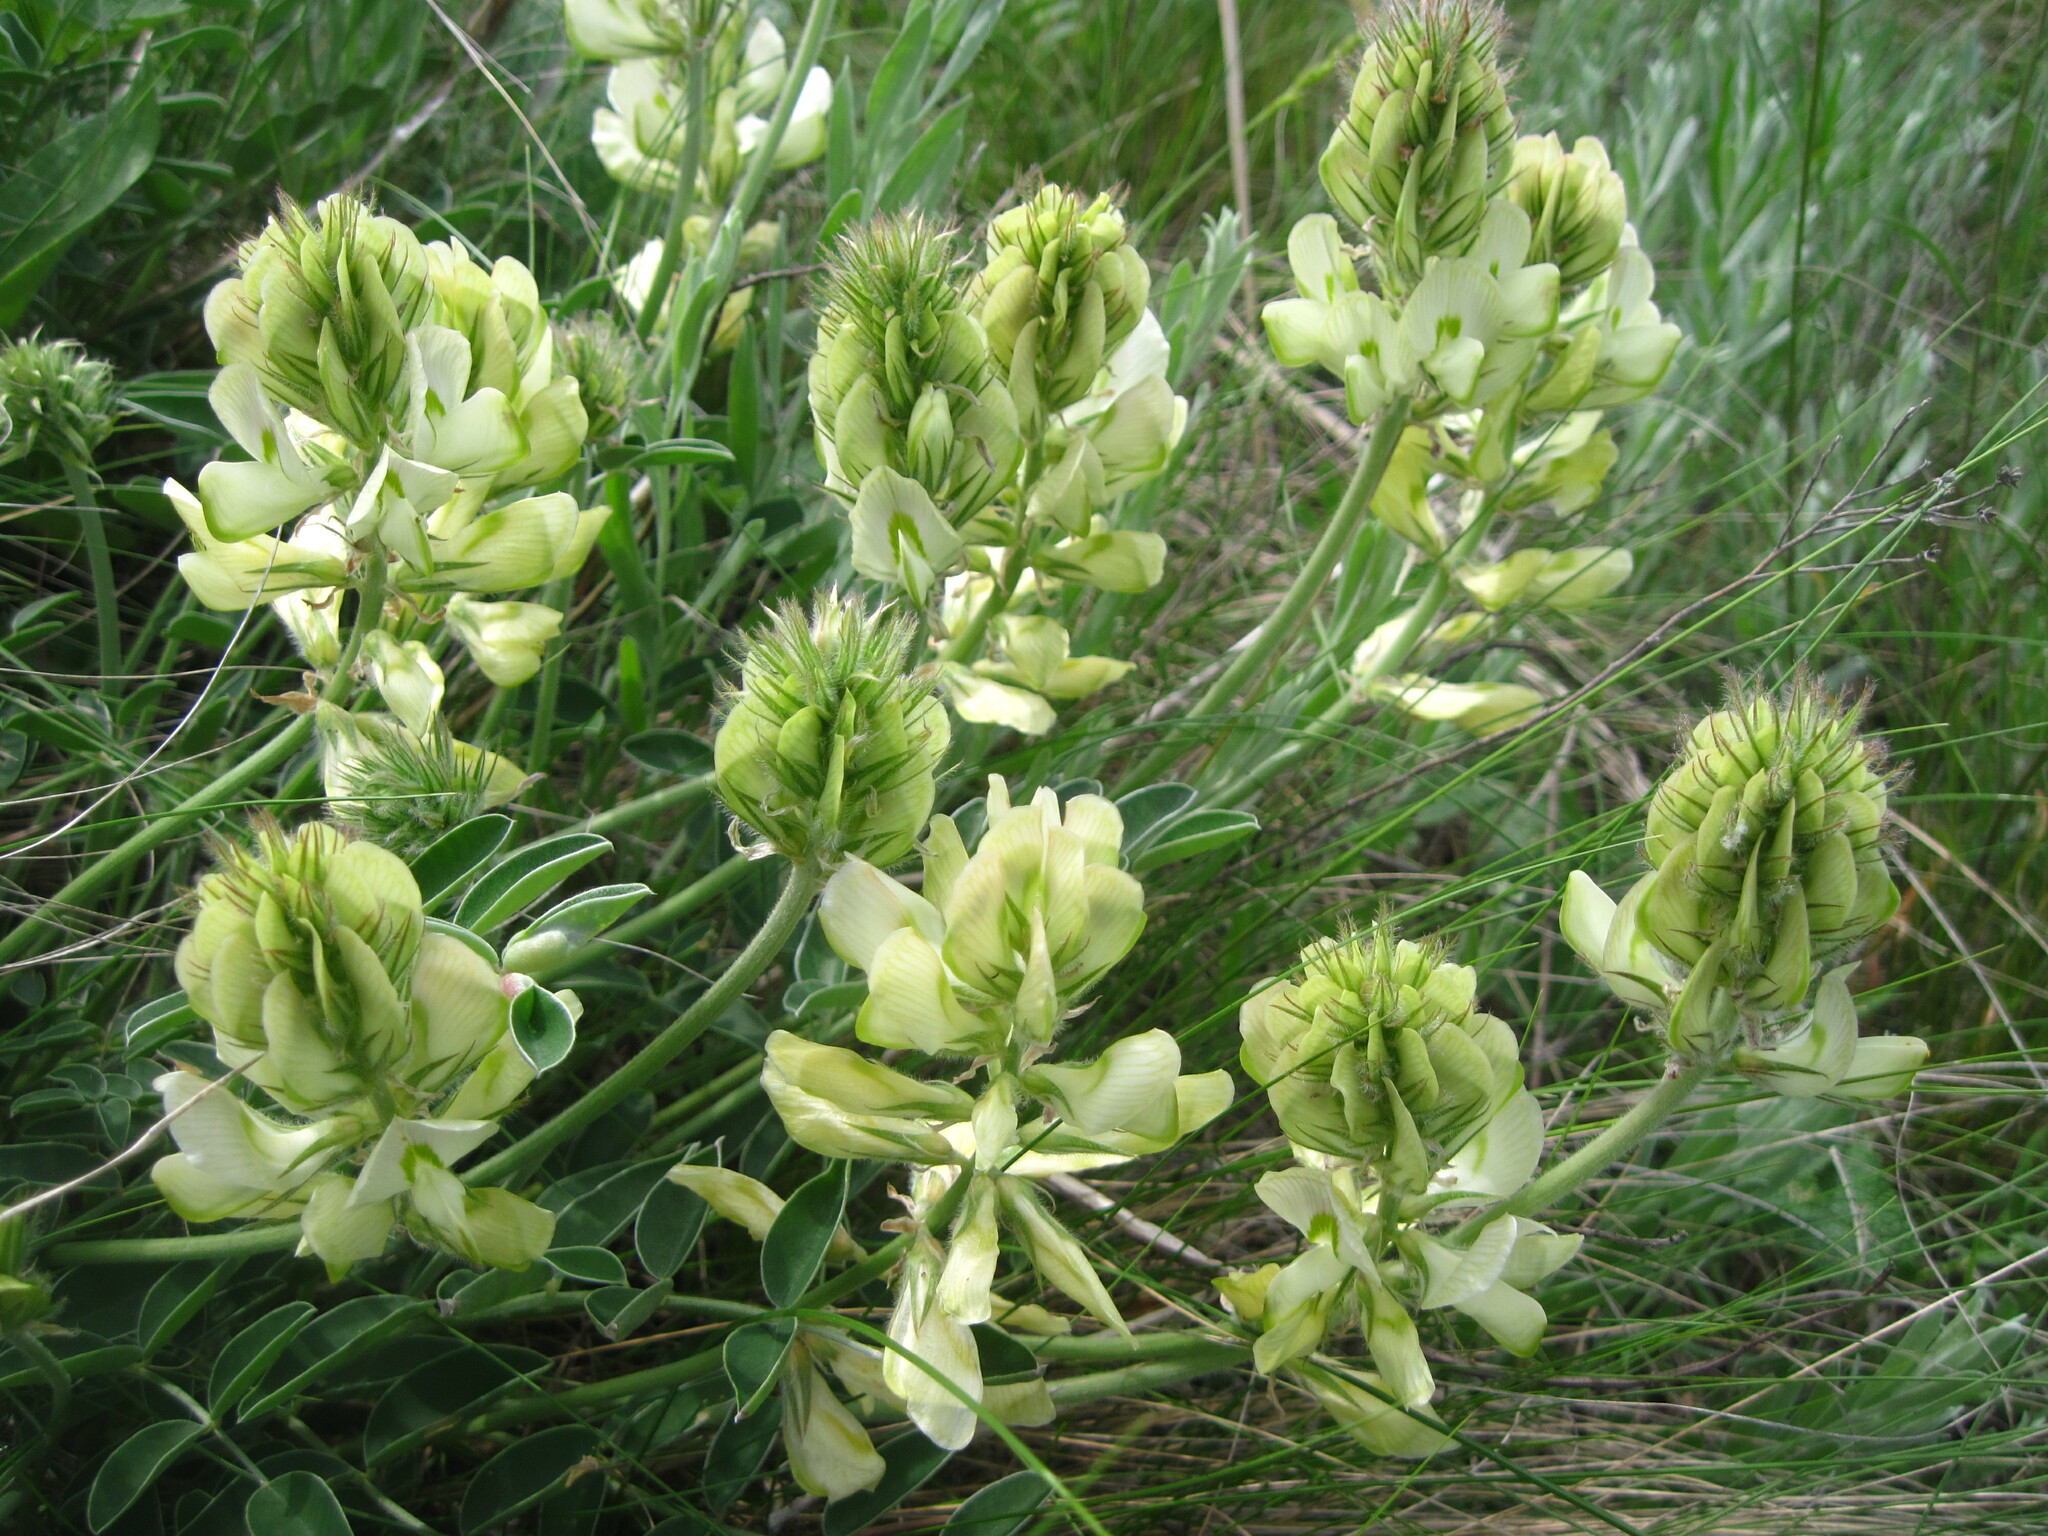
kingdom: Plantae
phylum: Tracheophyta
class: Magnoliopsida
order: Fabales
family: Fabaceae
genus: Hedysarum
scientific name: Hedysarum grandiflorum
